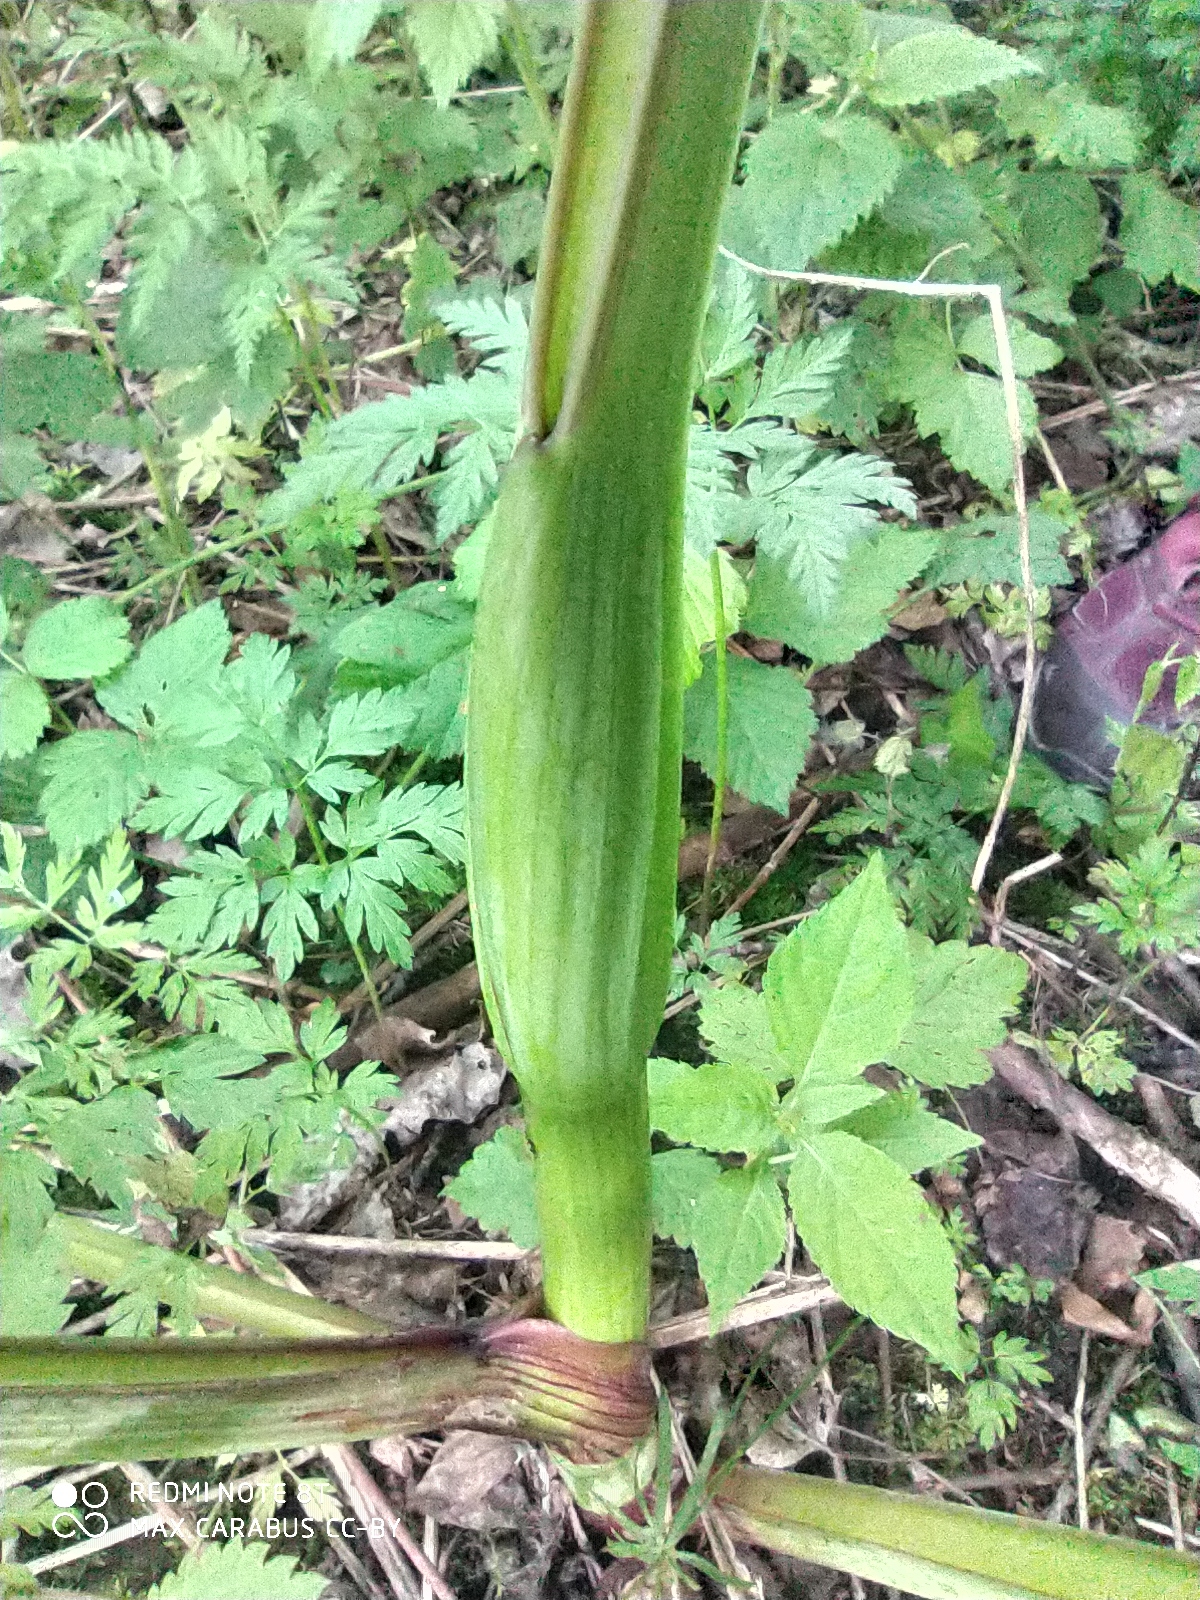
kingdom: Plantae
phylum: Tracheophyta
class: Magnoliopsida
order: Apiales
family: Apiaceae
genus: Angelica
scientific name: Angelica sylvestris
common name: Wild angelica
